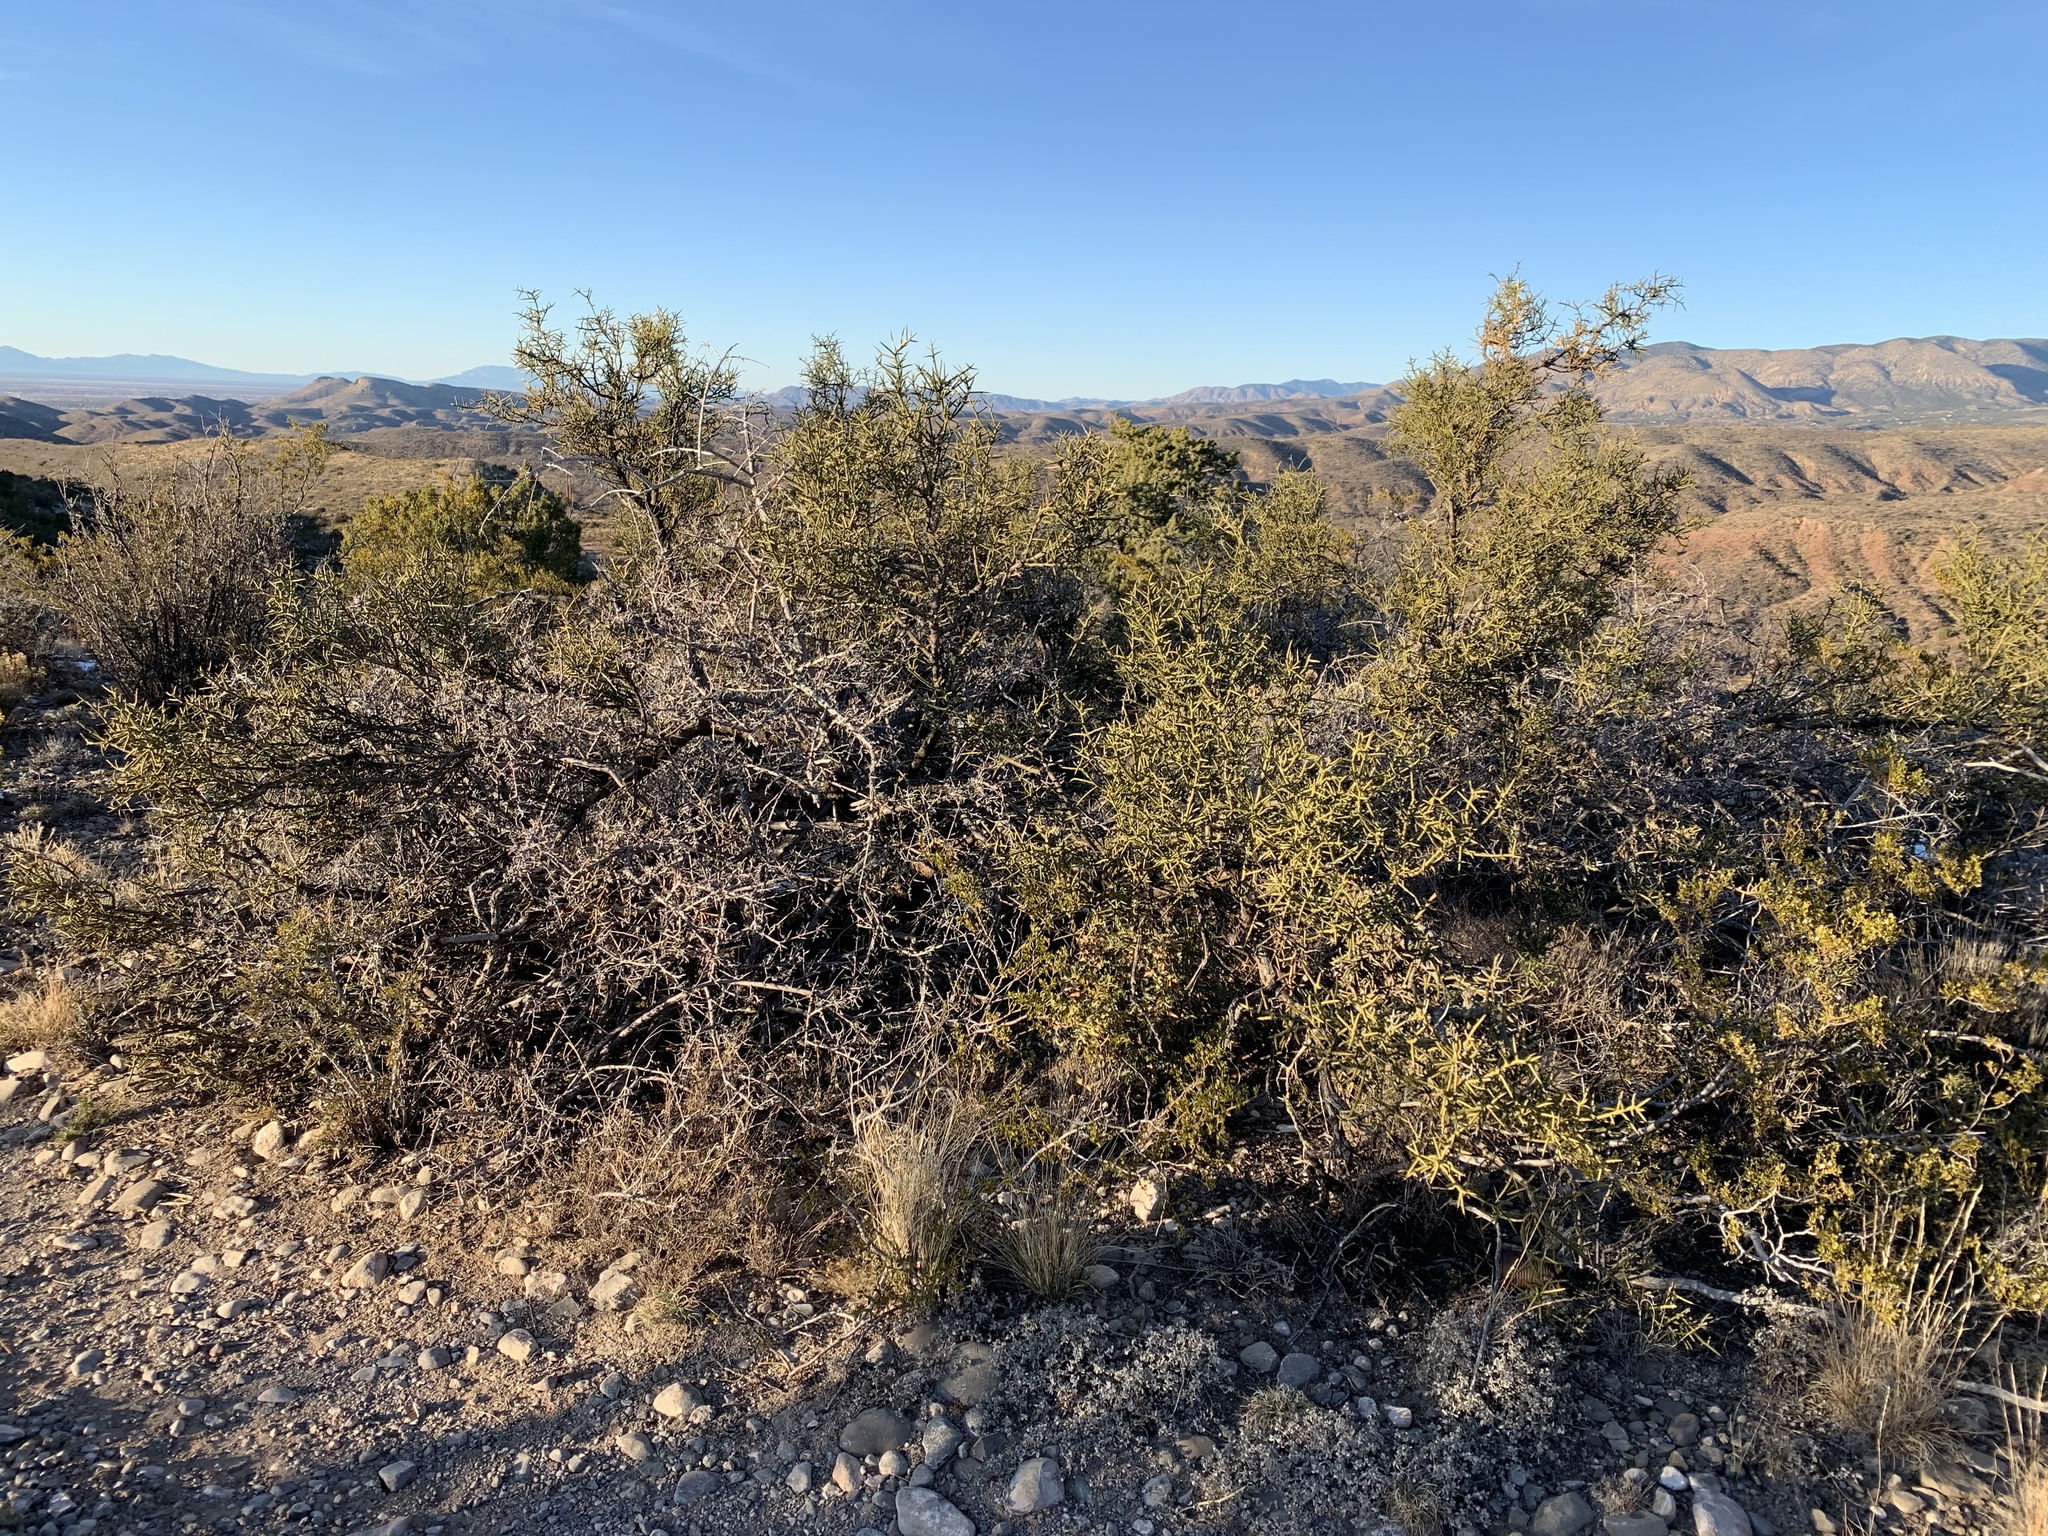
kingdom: Plantae
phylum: Tracheophyta
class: Magnoliopsida
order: Brassicales
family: Koeberliniaceae
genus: Koeberlinia
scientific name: Koeberlinia spinosa
